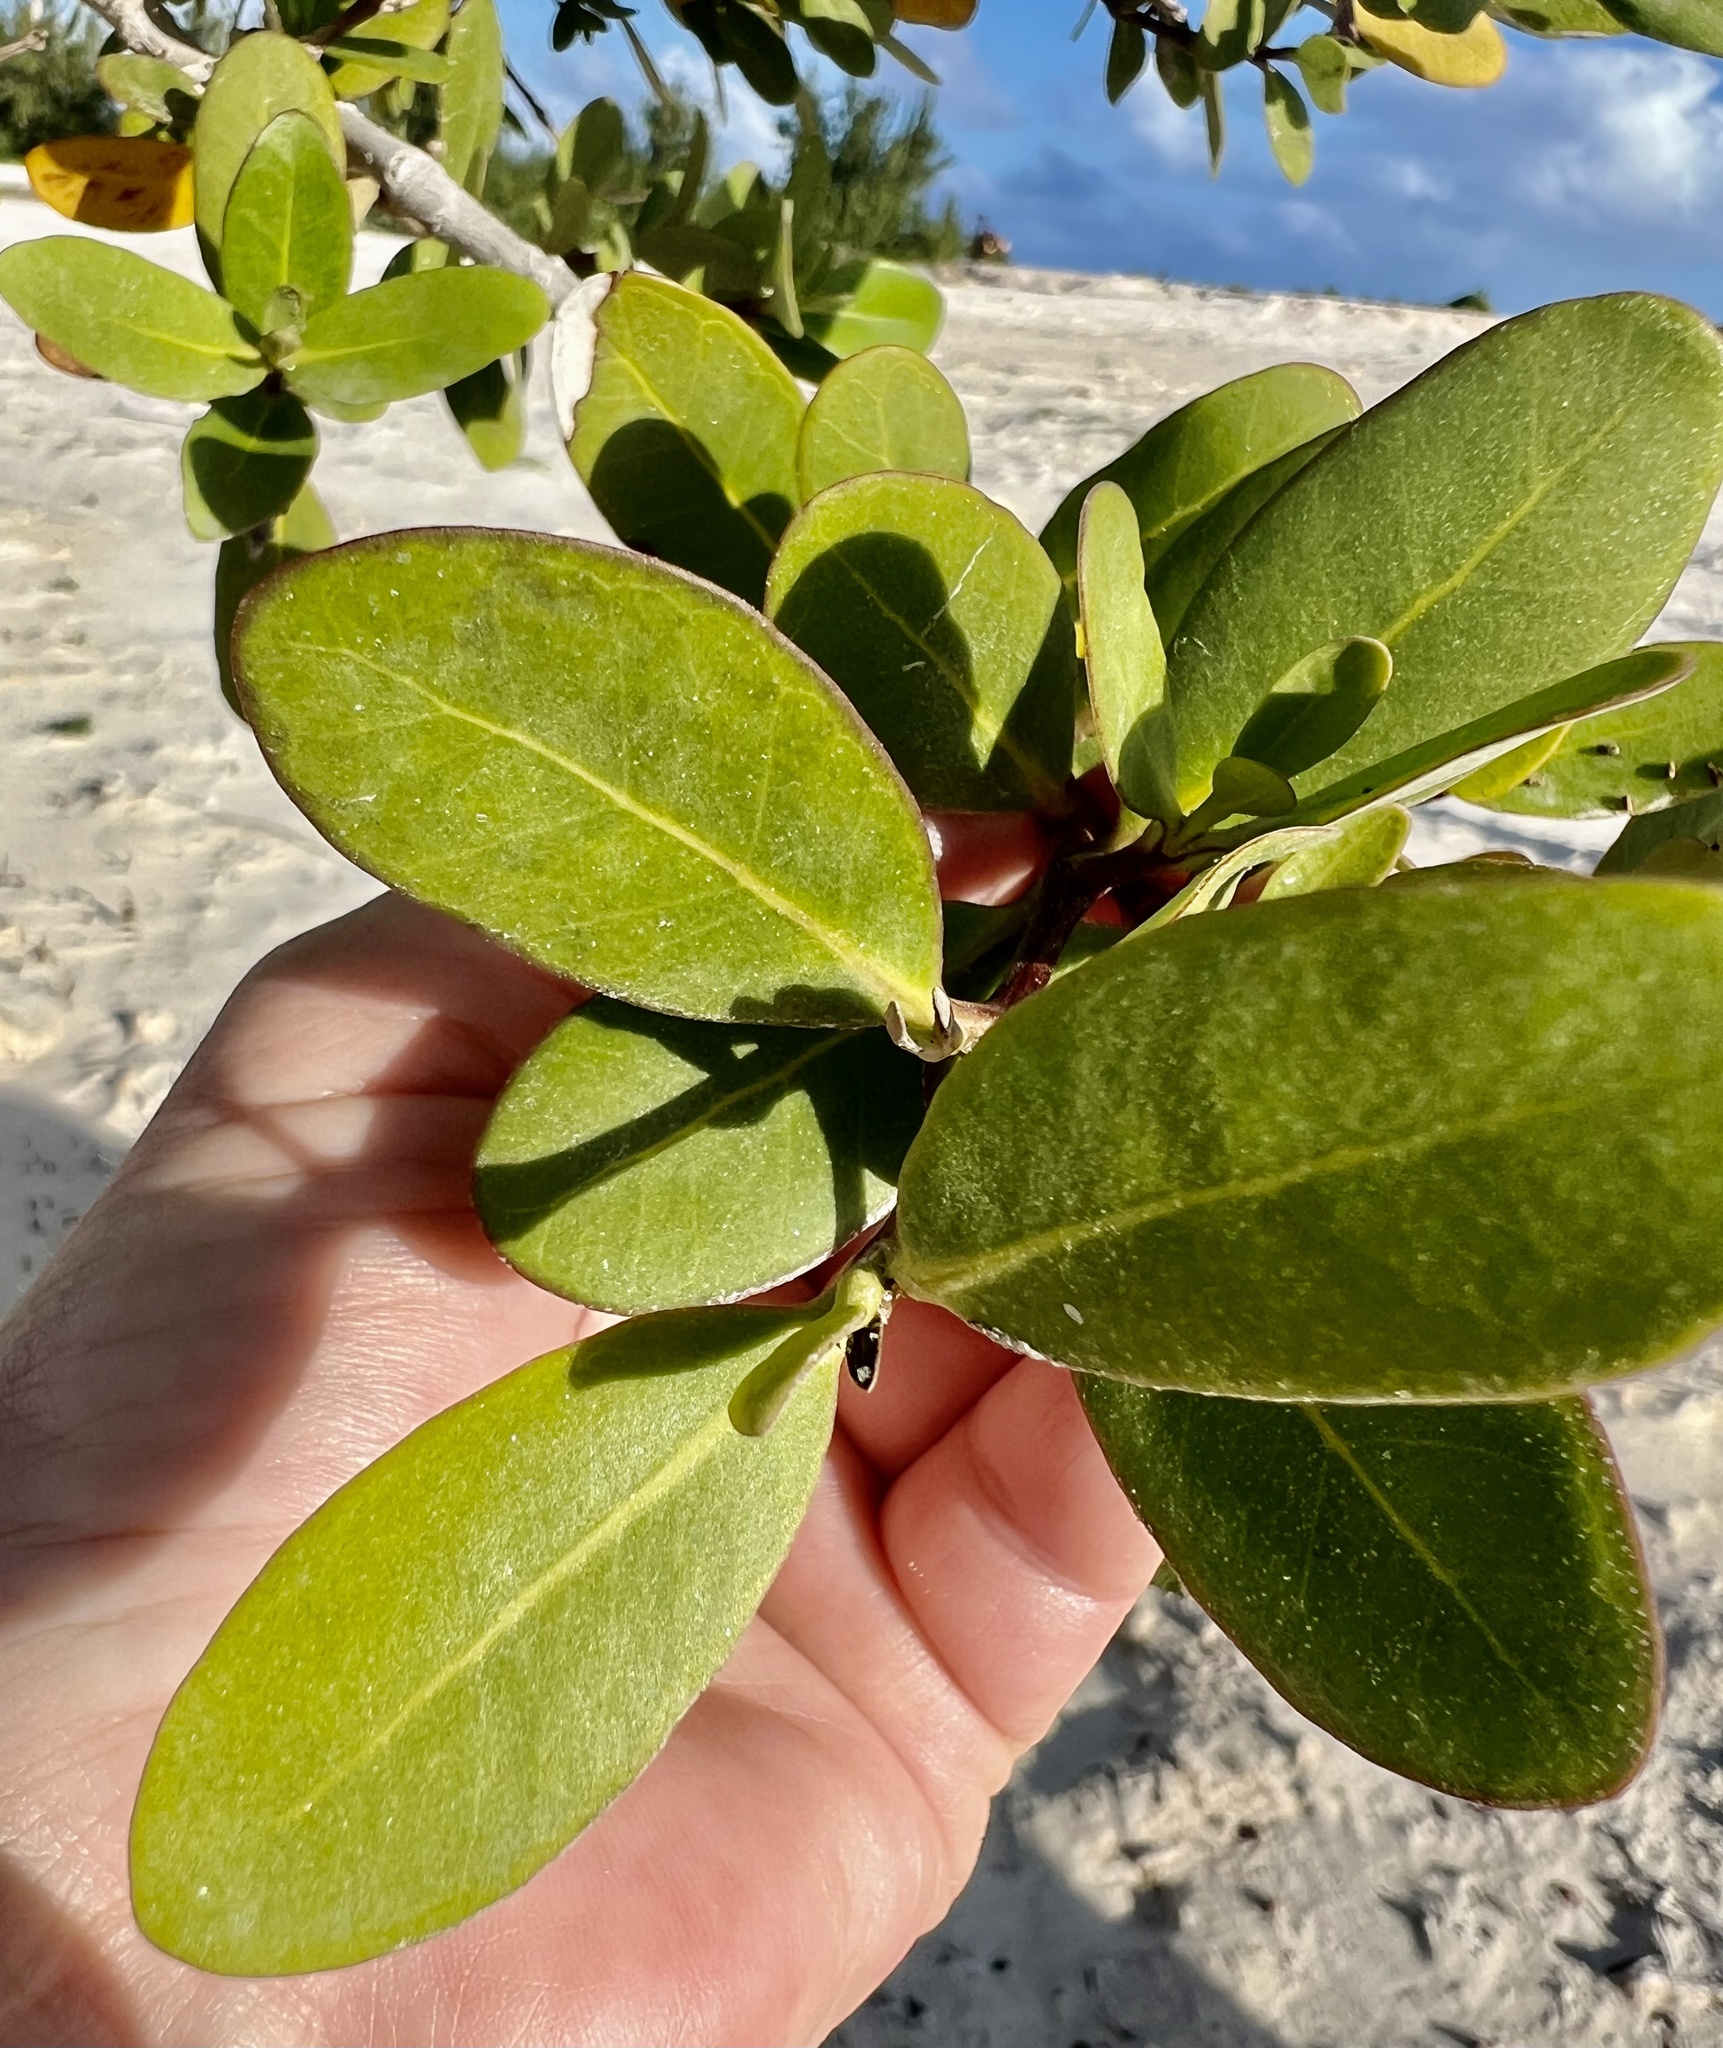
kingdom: Plantae
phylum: Tracheophyta
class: Magnoliopsida
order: Lamiales
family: Acanthaceae
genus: Avicennia
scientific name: Avicennia germinans
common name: Black mangrove
